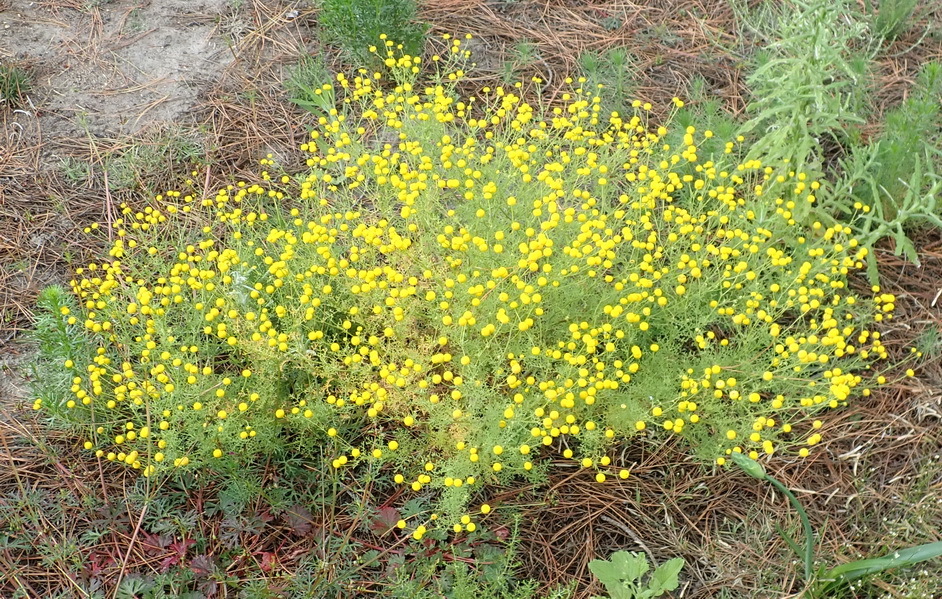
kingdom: Plantae
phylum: Tracheophyta
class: Magnoliopsida
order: Asterales
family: Asteraceae
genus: Oncosiphon
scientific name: Oncosiphon pilulifer
